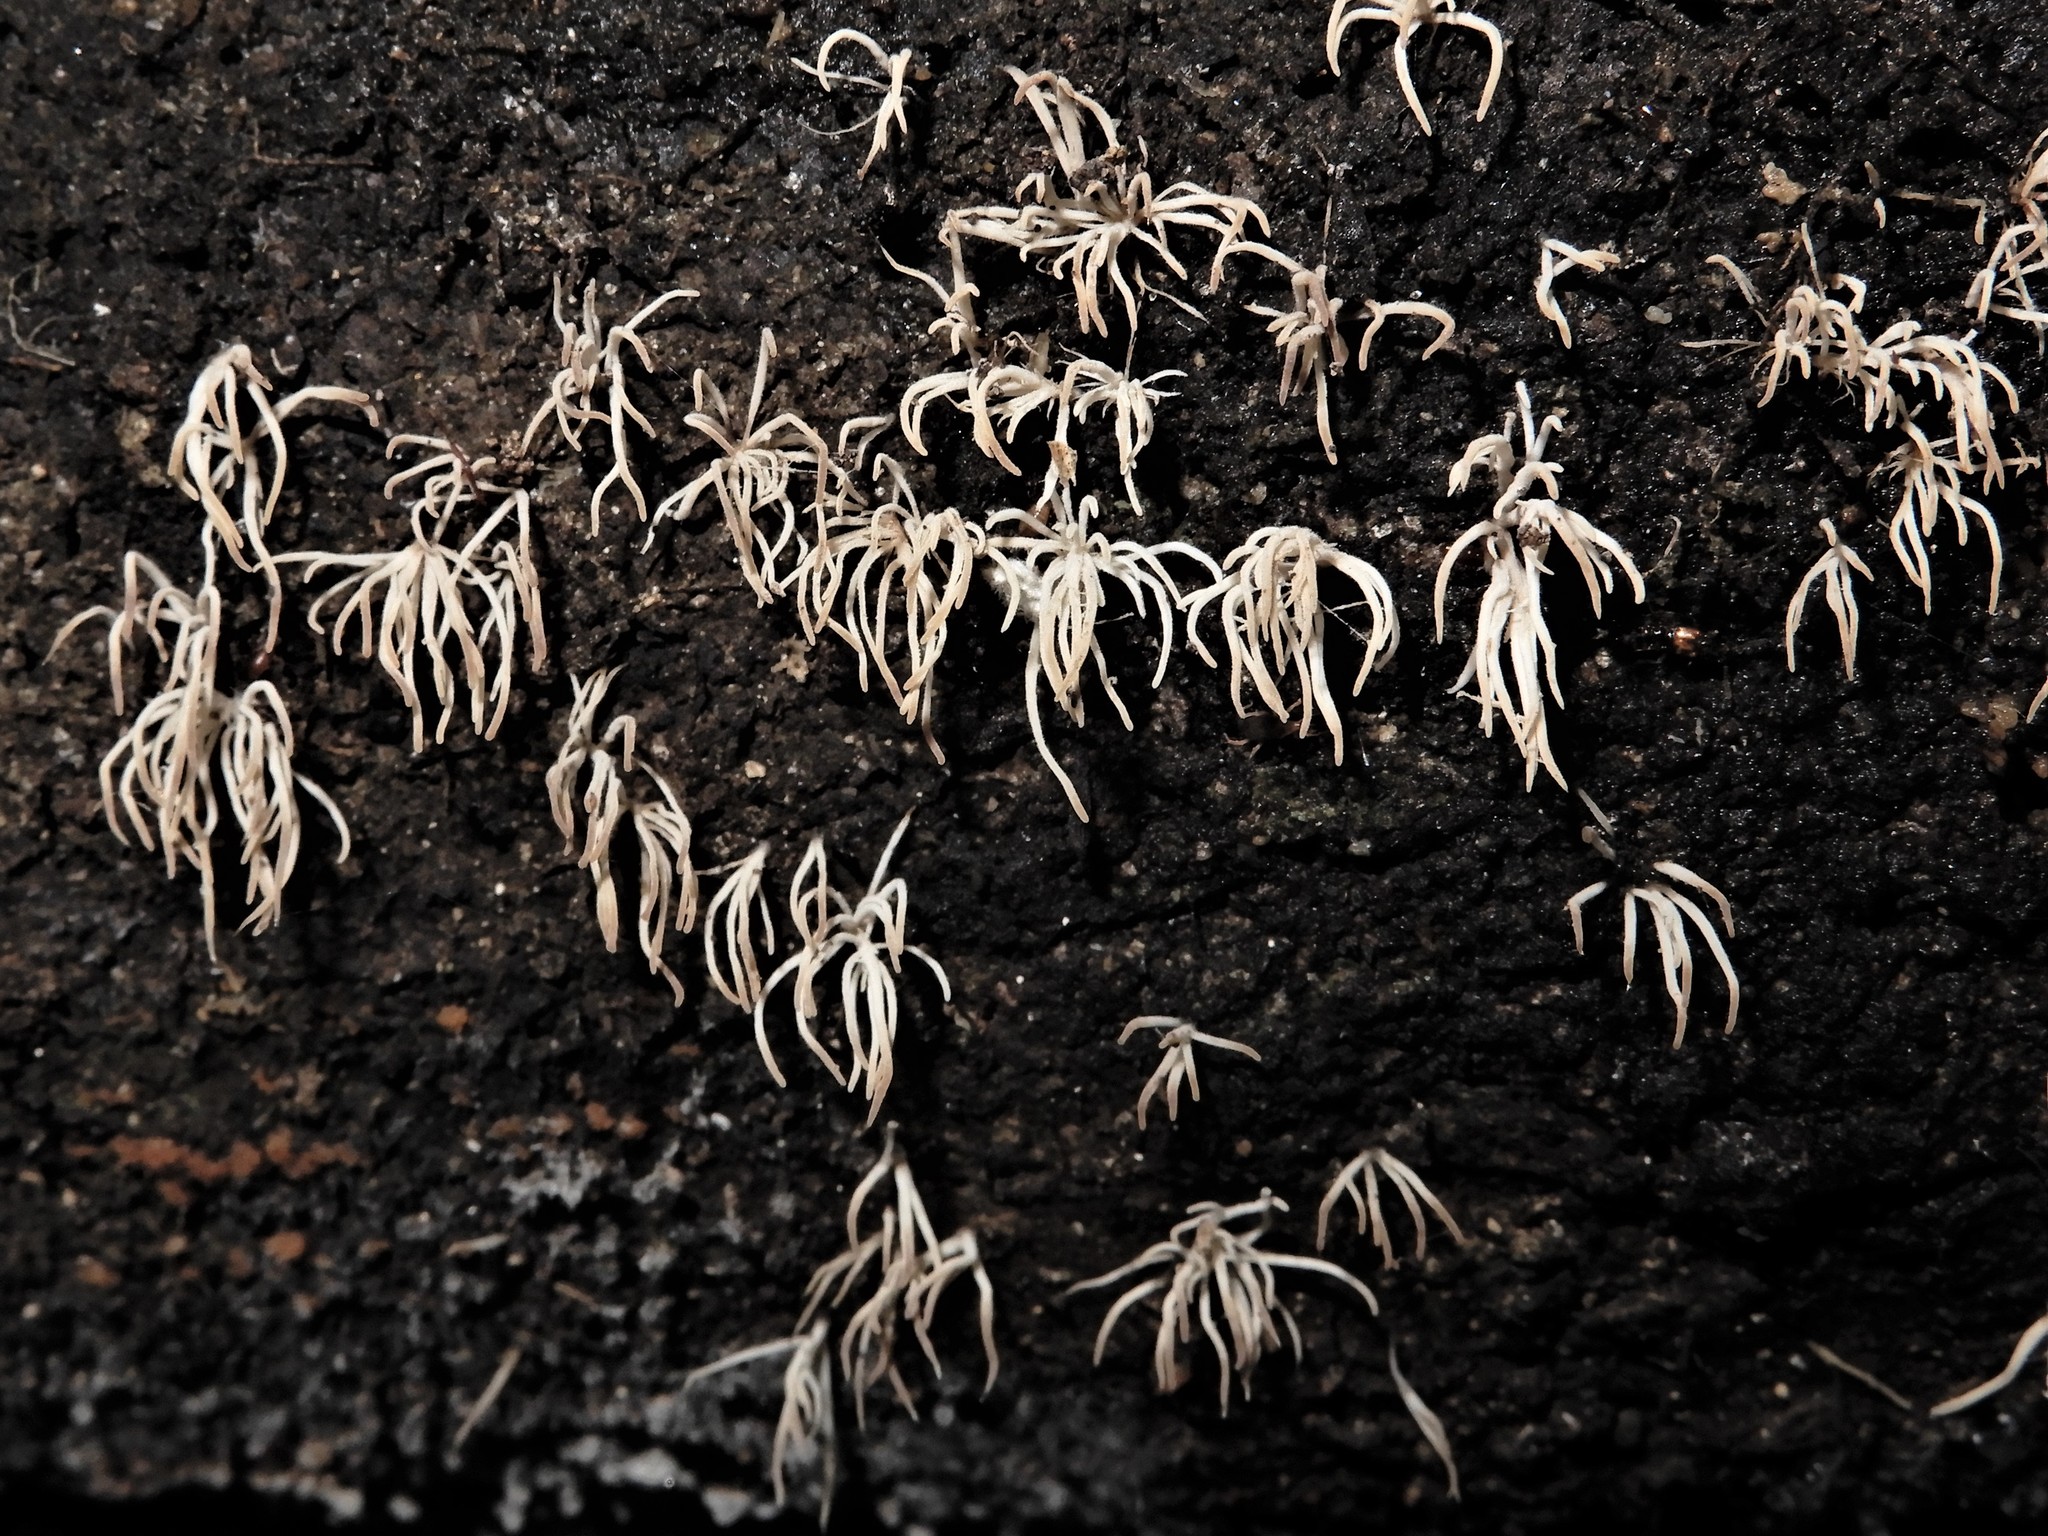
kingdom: Fungi
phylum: Basidiomycota
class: Agaricomycetes
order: Agaricales
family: Pterulaceae
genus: Pterulicium
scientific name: Pterulicium nanum
